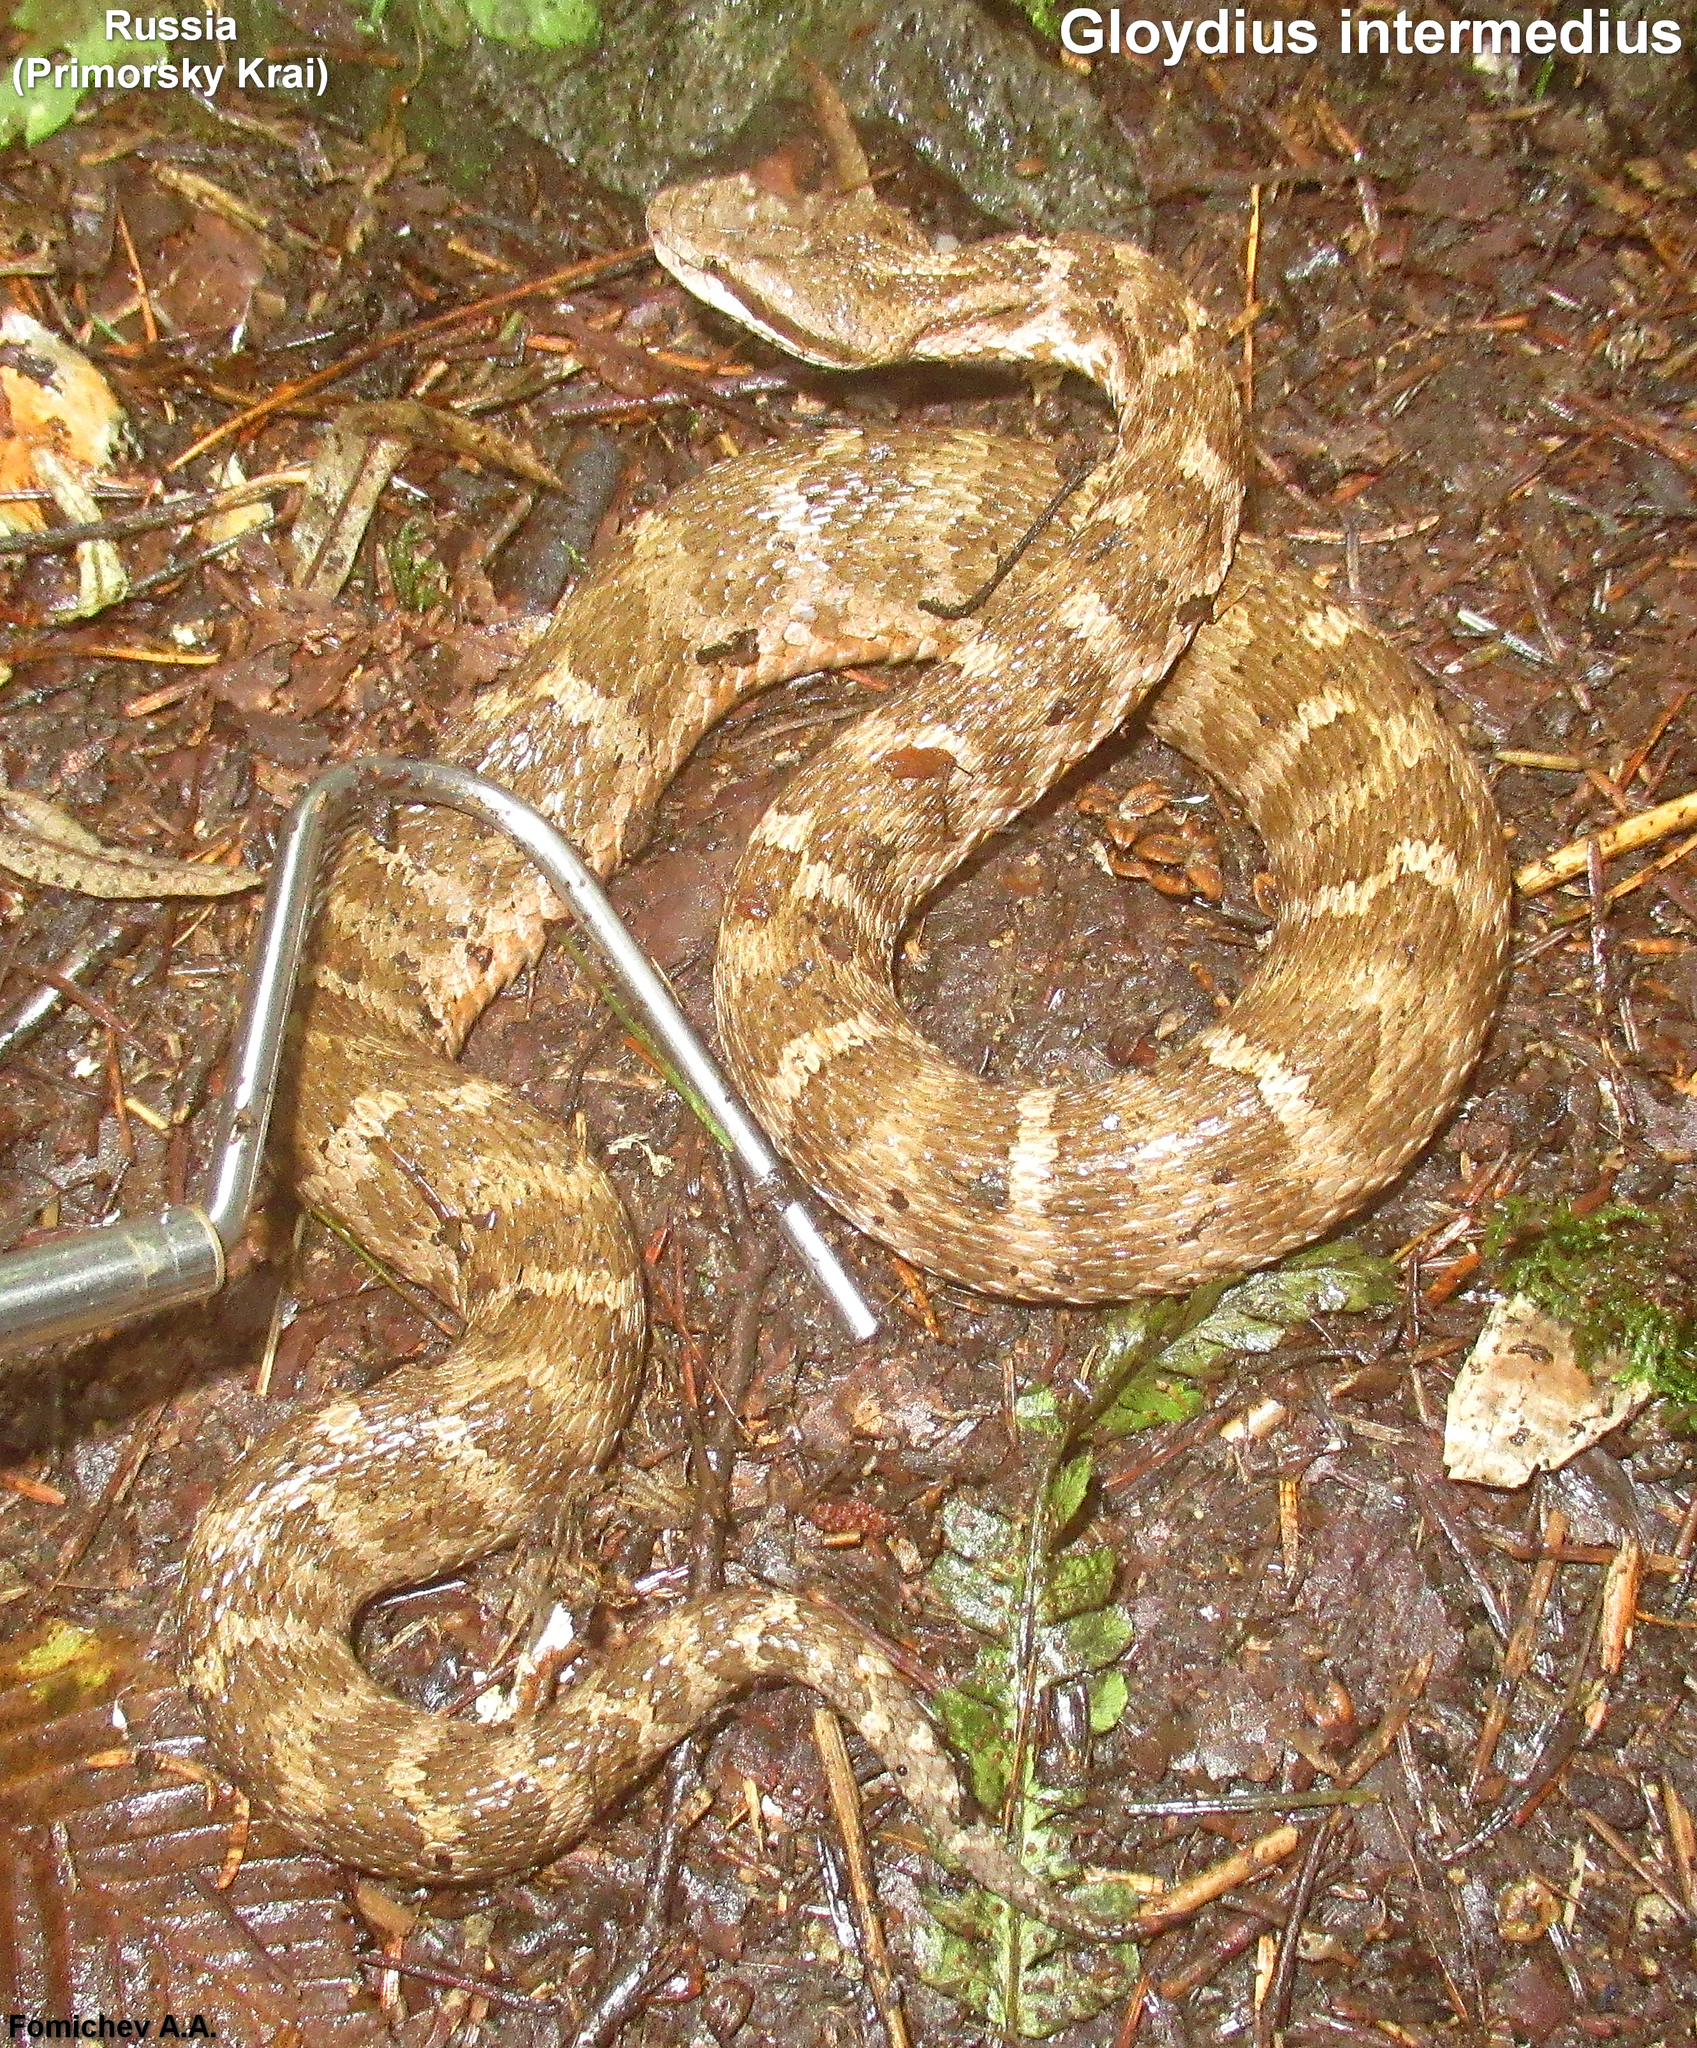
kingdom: Animalia
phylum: Chordata
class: Squamata
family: Viperidae
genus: Gloydius
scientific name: Gloydius intermedius
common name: Central asian pit viper
